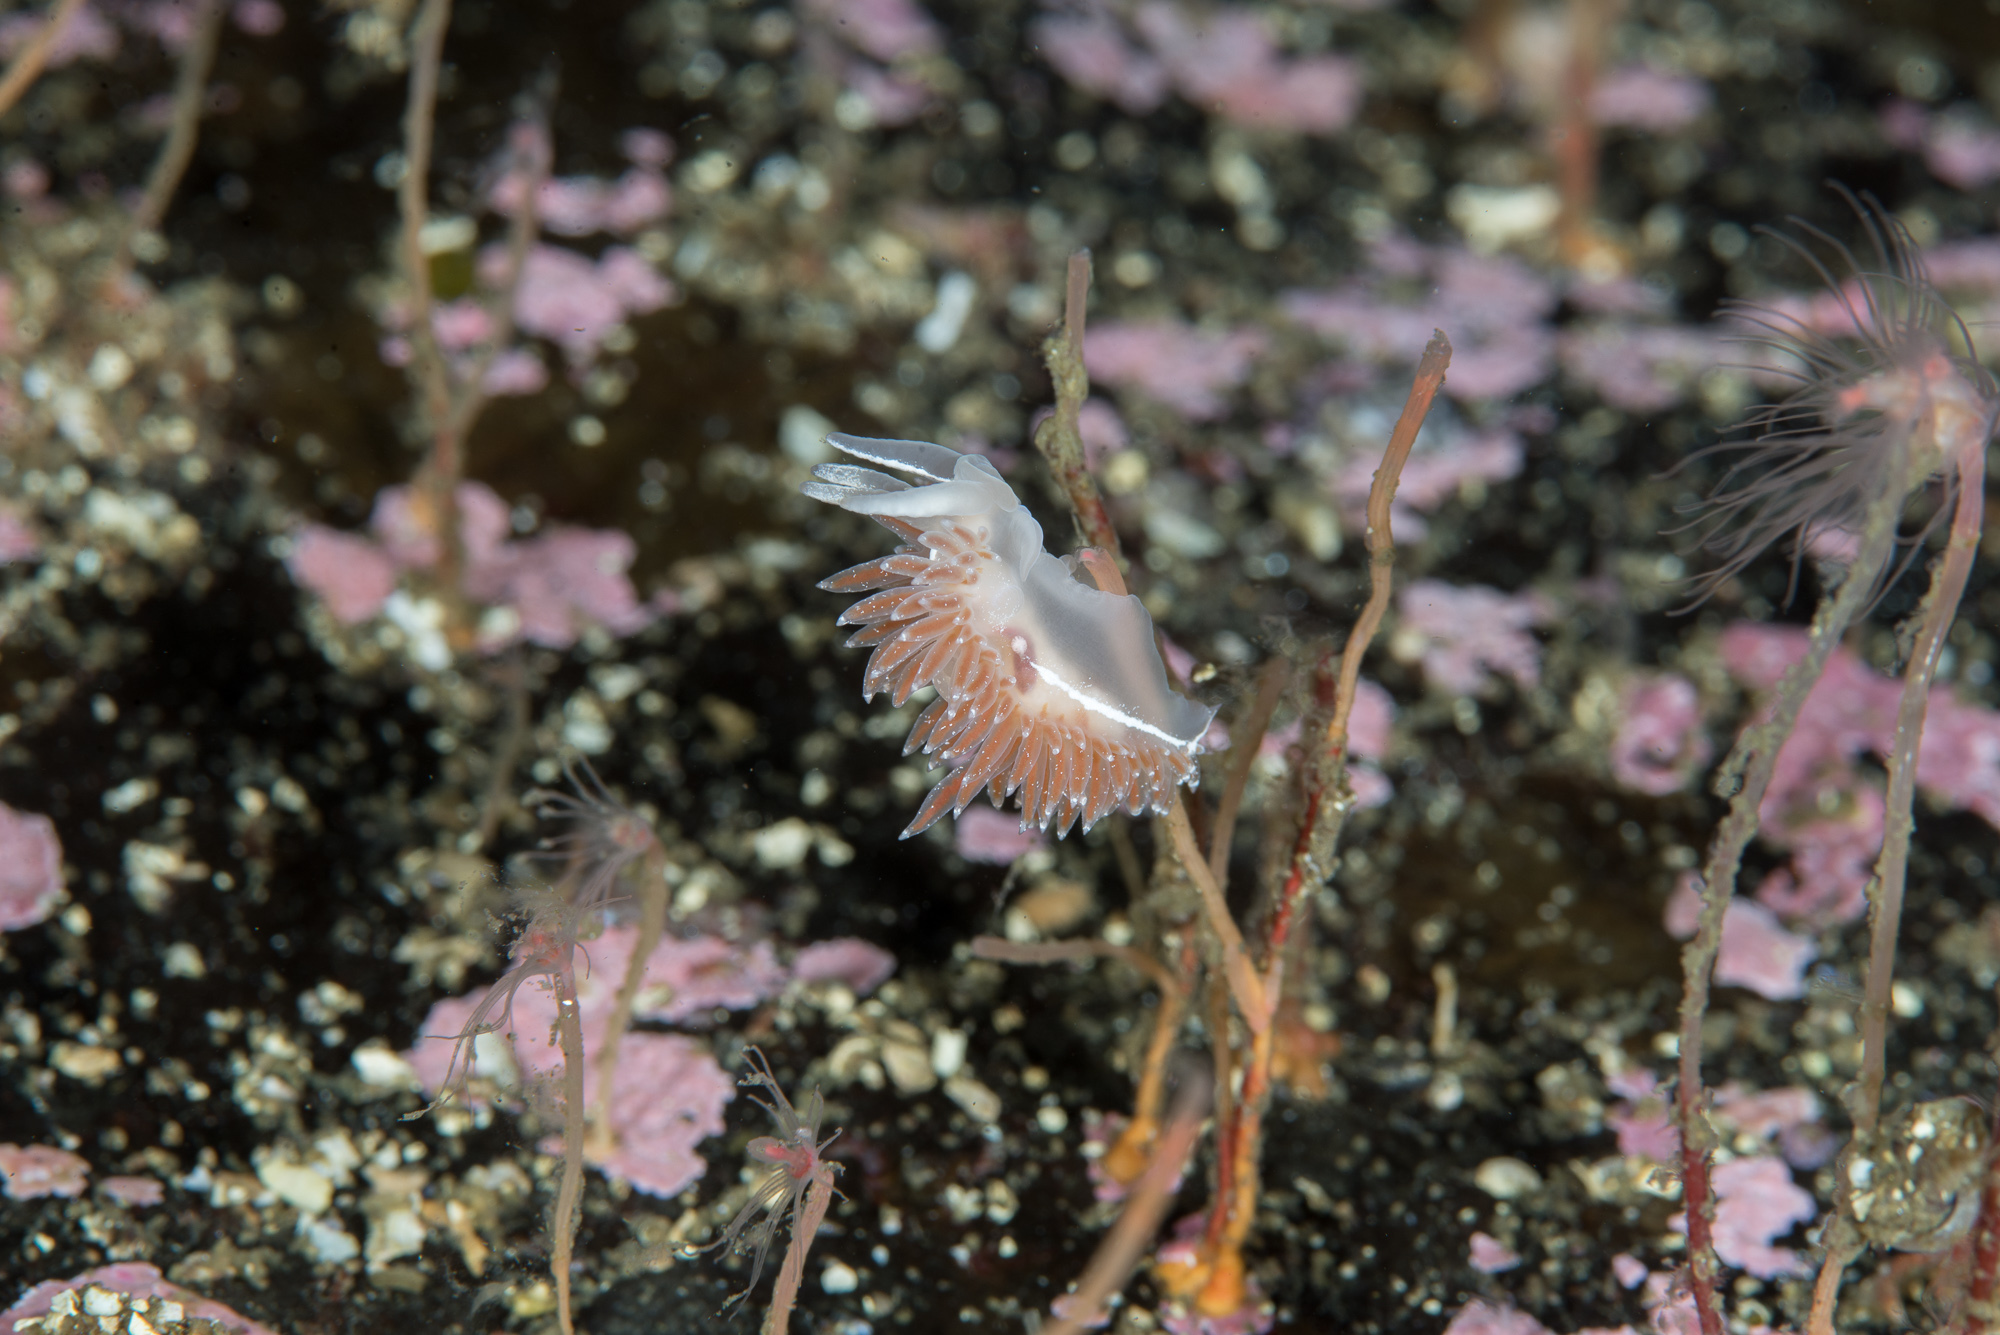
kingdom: Animalia
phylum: Mollusca
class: Gastropoda
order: Nudibranchia
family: Coryphellidae
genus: Coryphella
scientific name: Coryphella orjani
